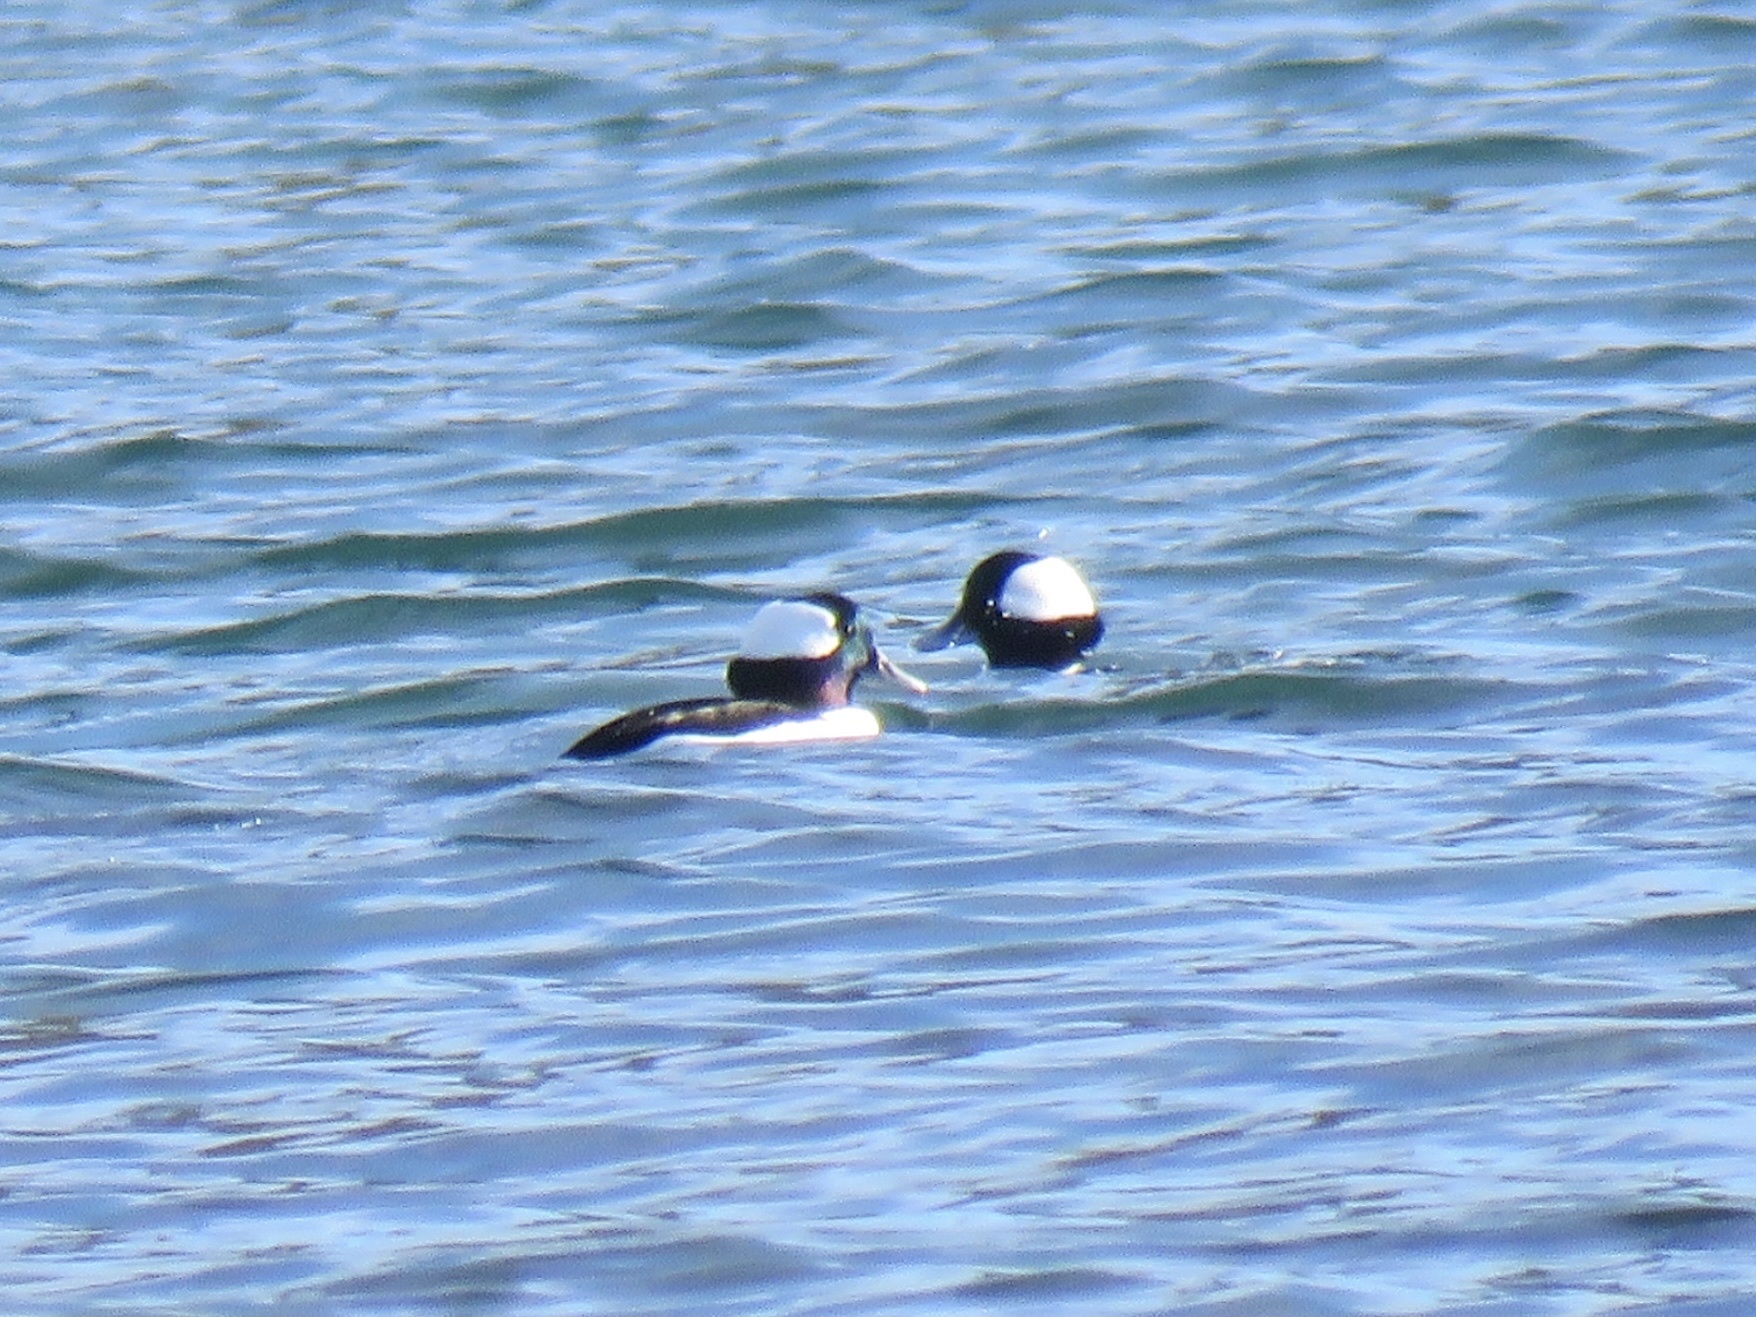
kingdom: Animalia
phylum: Chordata
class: Aves
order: Anseriformes
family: Anatidae
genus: Bucephala
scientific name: Bucephala albeola
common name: Bufflehead
